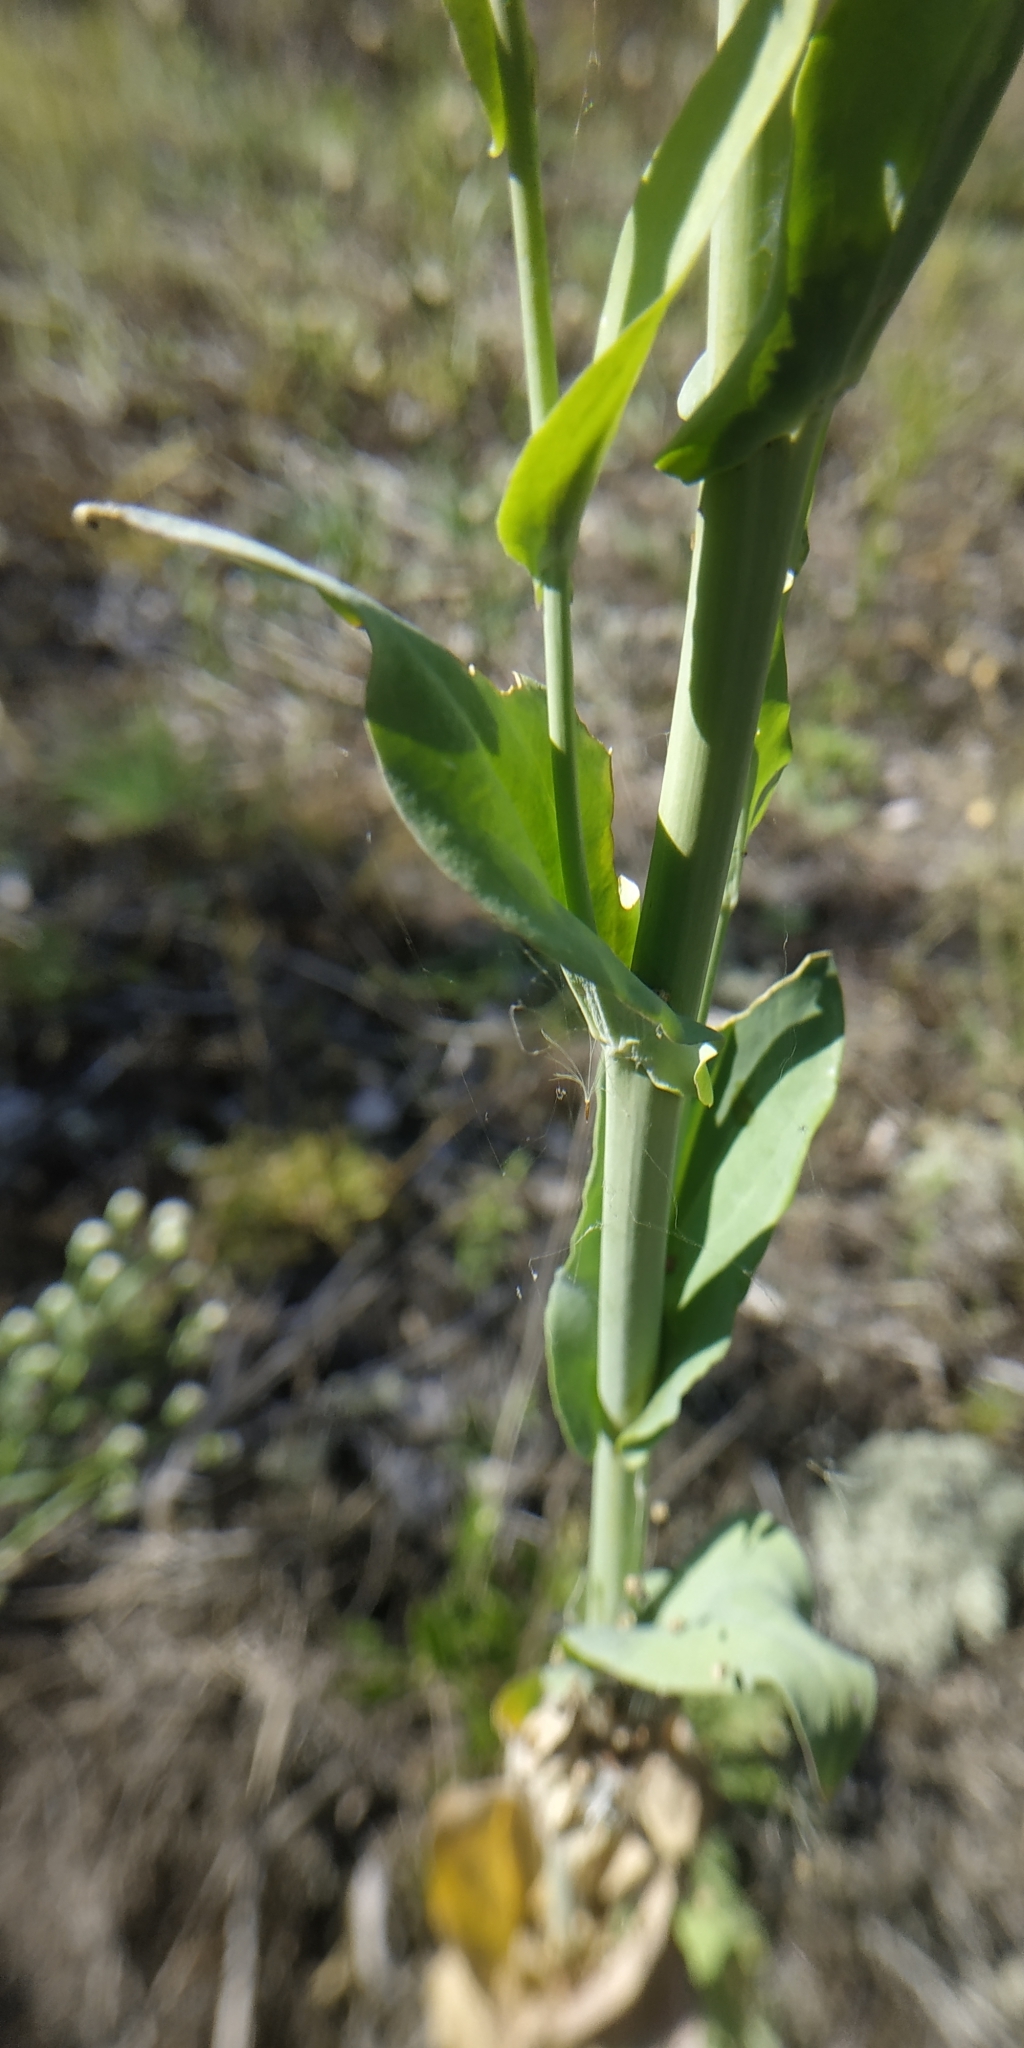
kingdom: Plantae
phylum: Tracheophyta
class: Magnoliopsida
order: Brassicales
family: Brassicaceae
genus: Turritis
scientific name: Turritis glabra
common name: Tower rockcress
